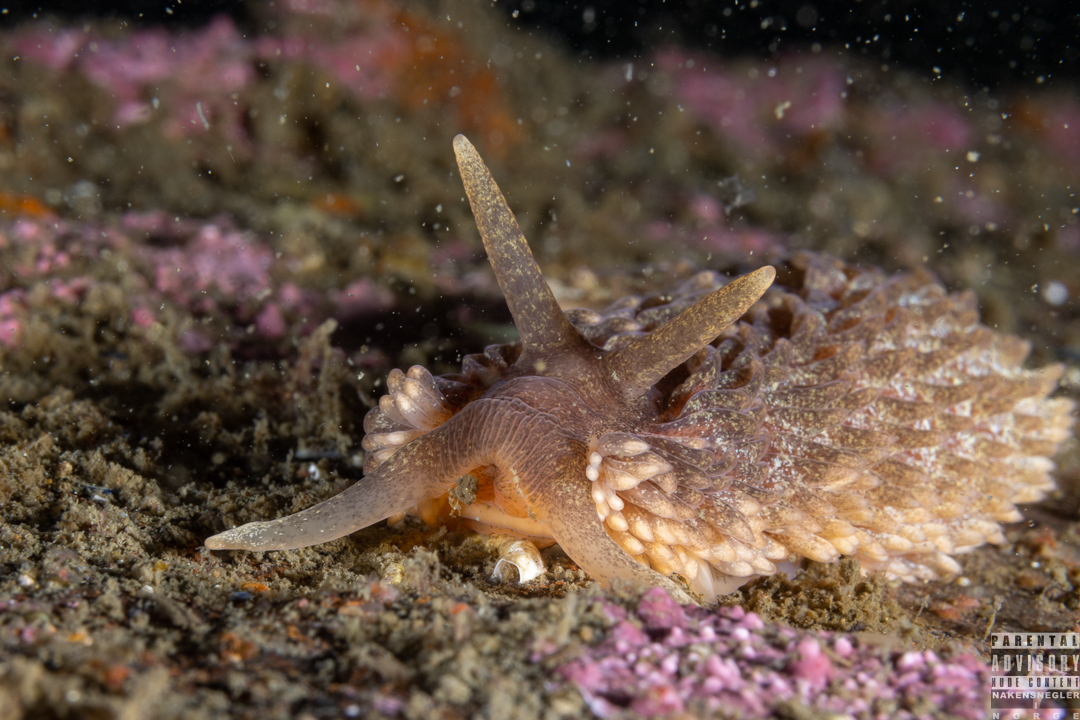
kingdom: Animalia
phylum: Mollusca
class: Gastropoda
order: Nudibranchia
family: Aeolidiidae
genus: Aeolidia
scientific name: Aeolidia papillosa
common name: Common grey sea slug
